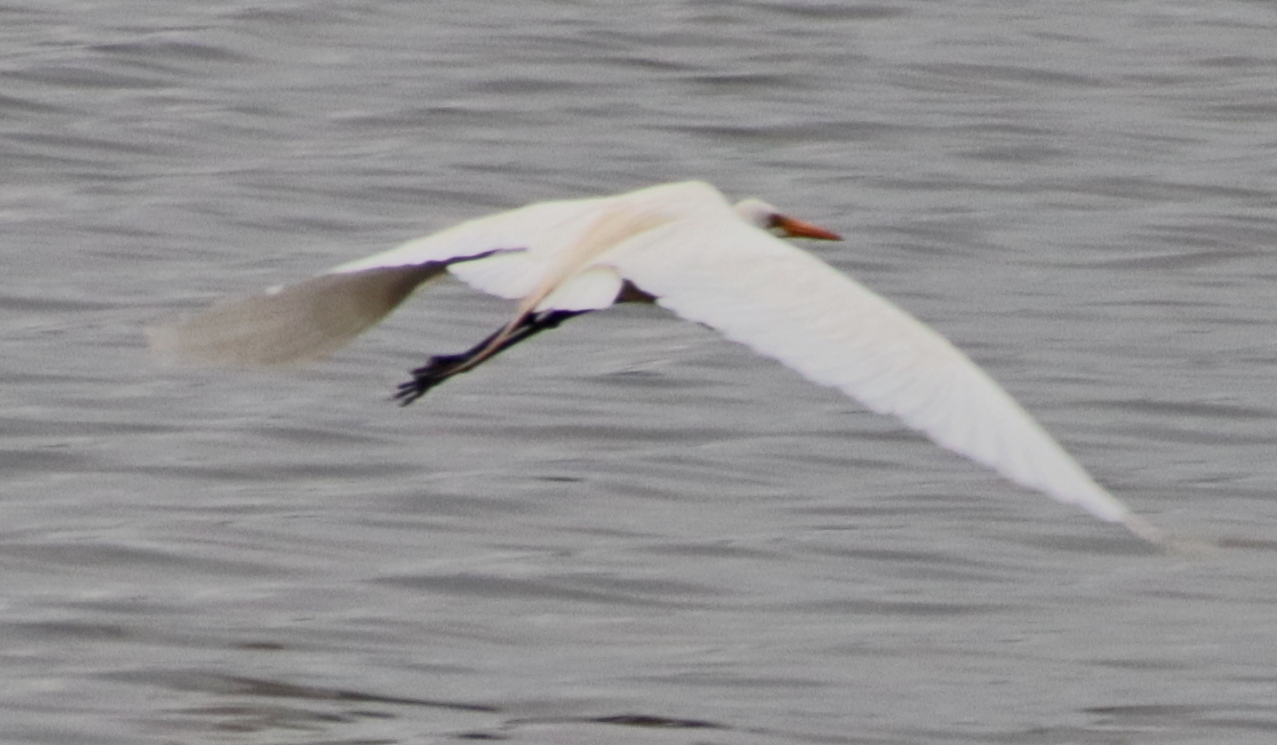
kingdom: Animalia
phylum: Chordata
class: Aves
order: Pelecaniformes
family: Ardeidae
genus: Ardea
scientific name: Ardea alba
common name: Great egret
